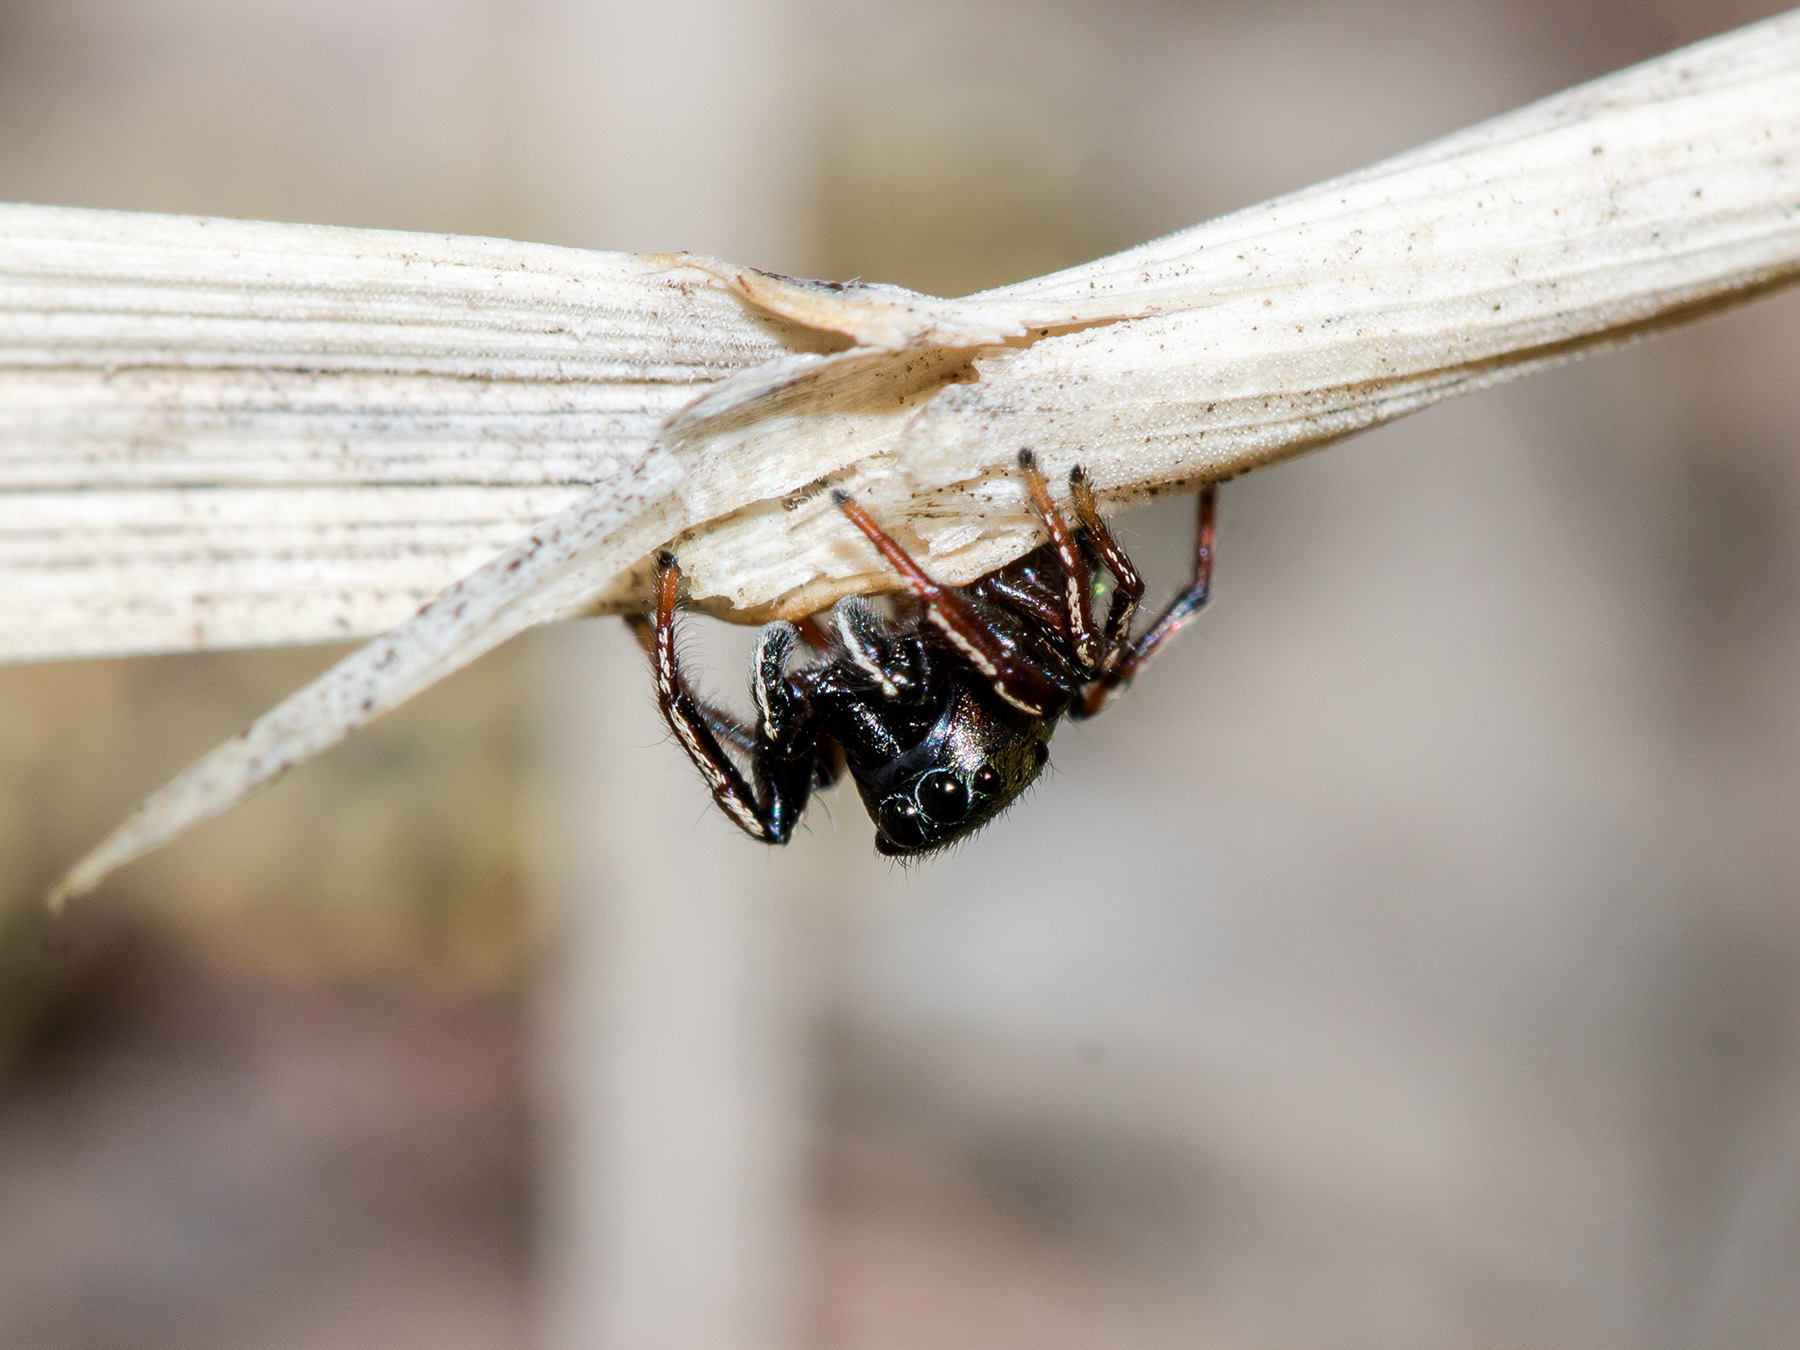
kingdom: Animalia
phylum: Arthropoda
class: Arachnida
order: Araneae
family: Salticidae
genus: Heliophanus
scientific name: Heliophanus auratus
